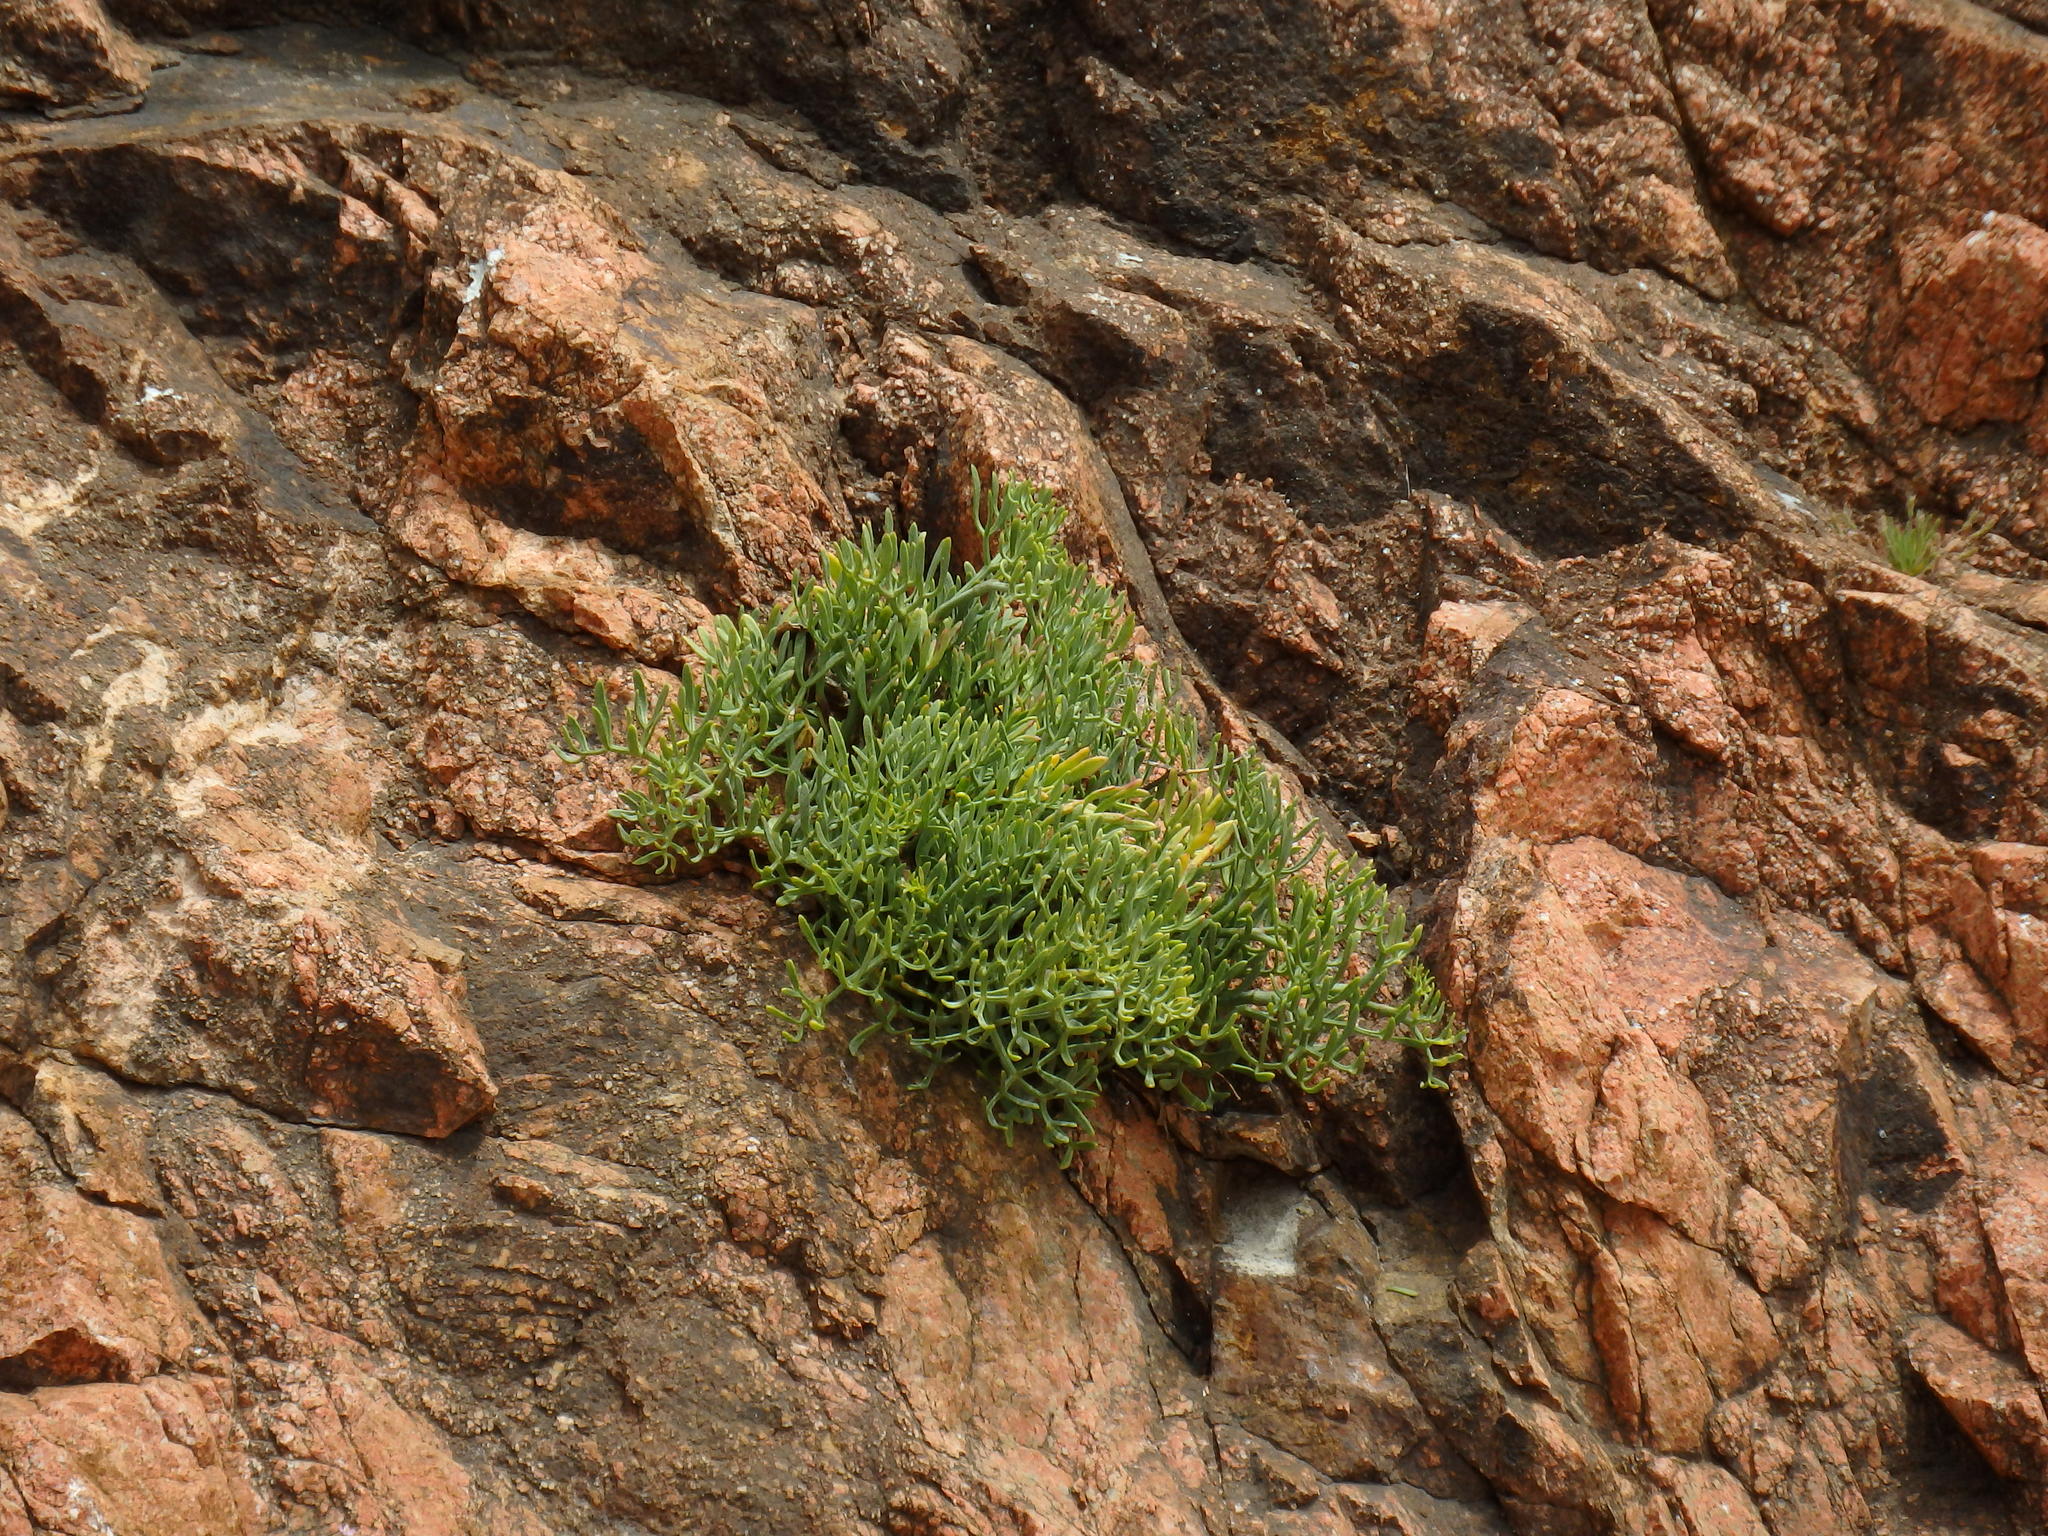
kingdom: Plantae
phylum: Tracheophyta
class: Magnoliopsida
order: Apiales
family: Apiaceae
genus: Crithmum
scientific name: Crithmum maritimum
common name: Rock samphire
